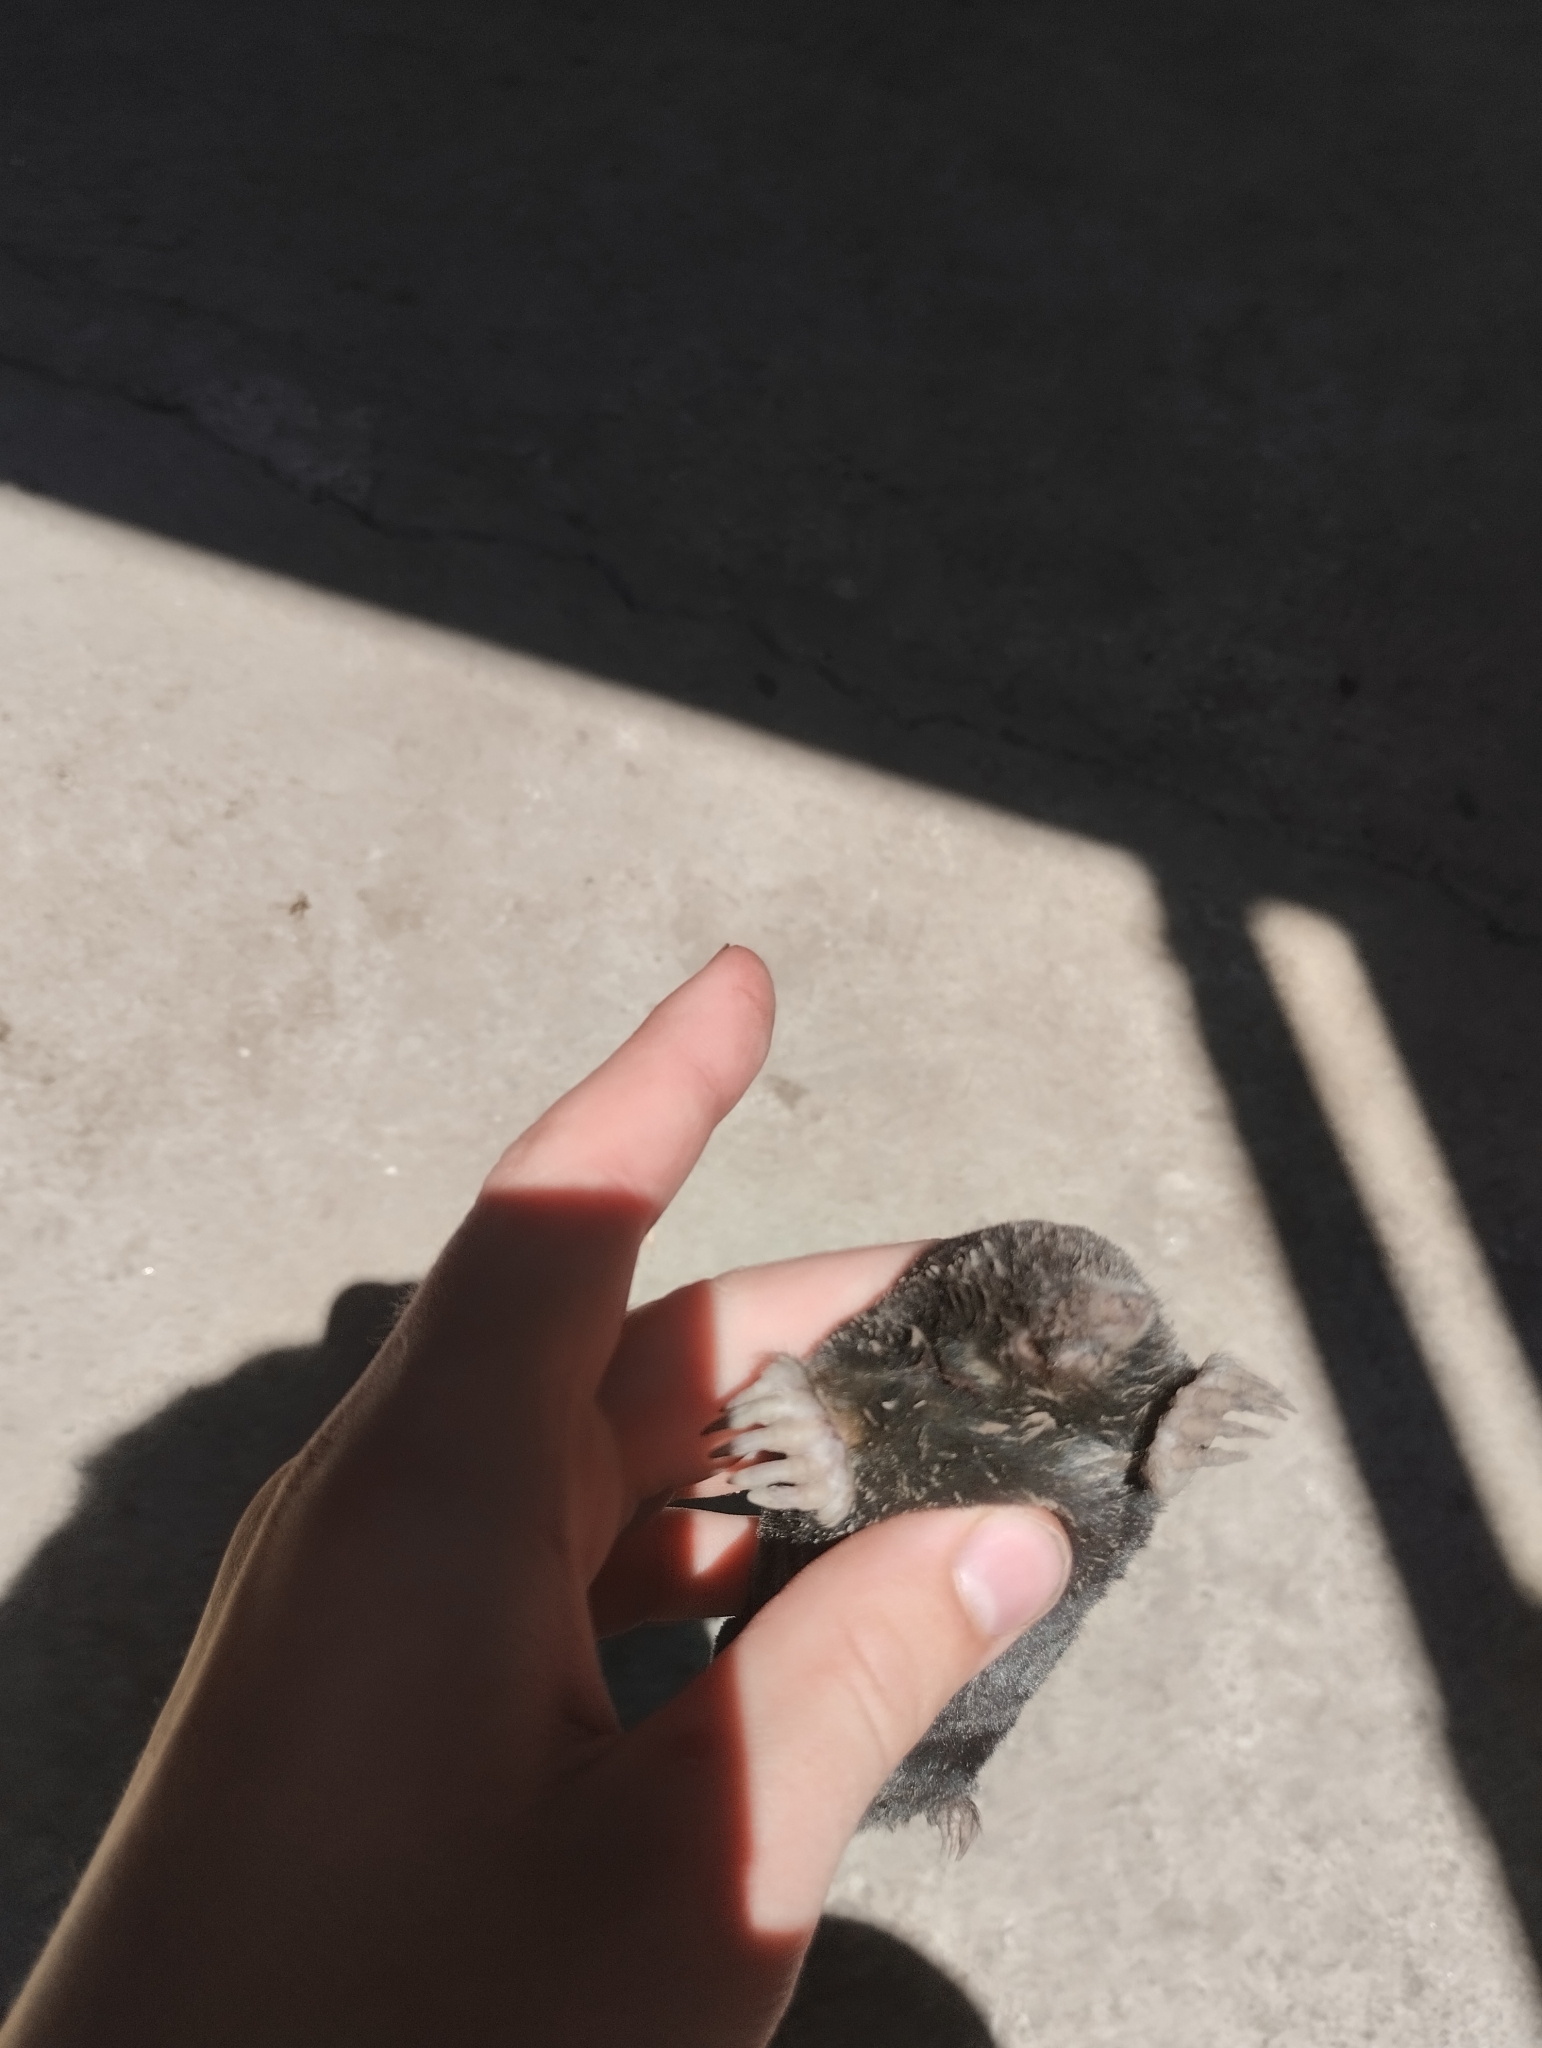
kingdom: Animalia
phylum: Chordata
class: Mammalia
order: Soricomorpha
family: Talpidae
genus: Talpa
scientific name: Talpa caucasica
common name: Caucasian mole
